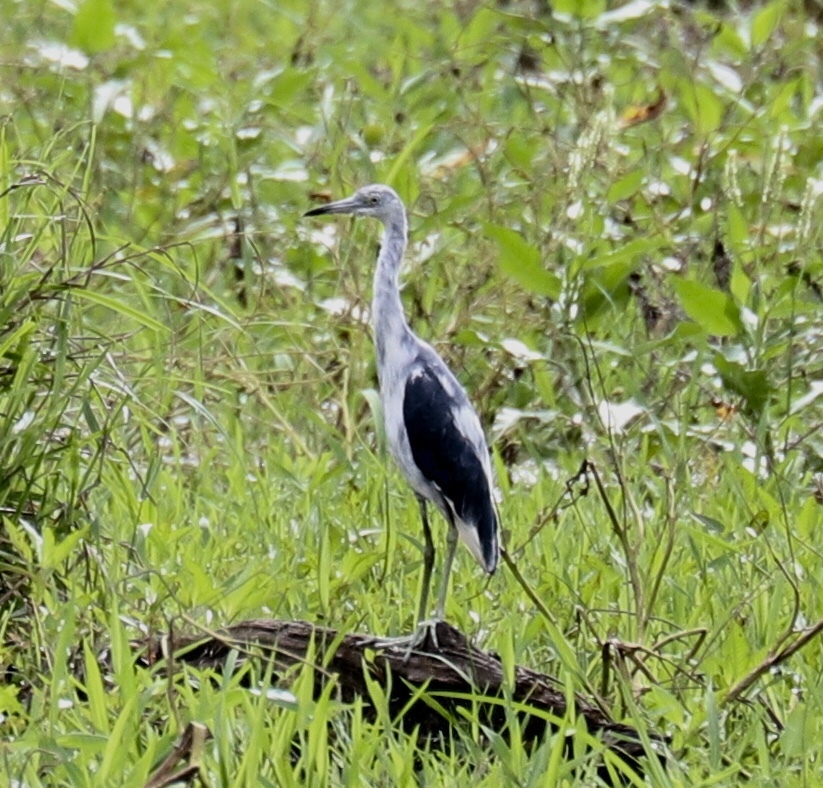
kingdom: Animalia
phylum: Chordata
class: Aves
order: Pelecaniformes
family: Ardeidae
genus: Egretta
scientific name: Egretta caerulea
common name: Little blue heron
